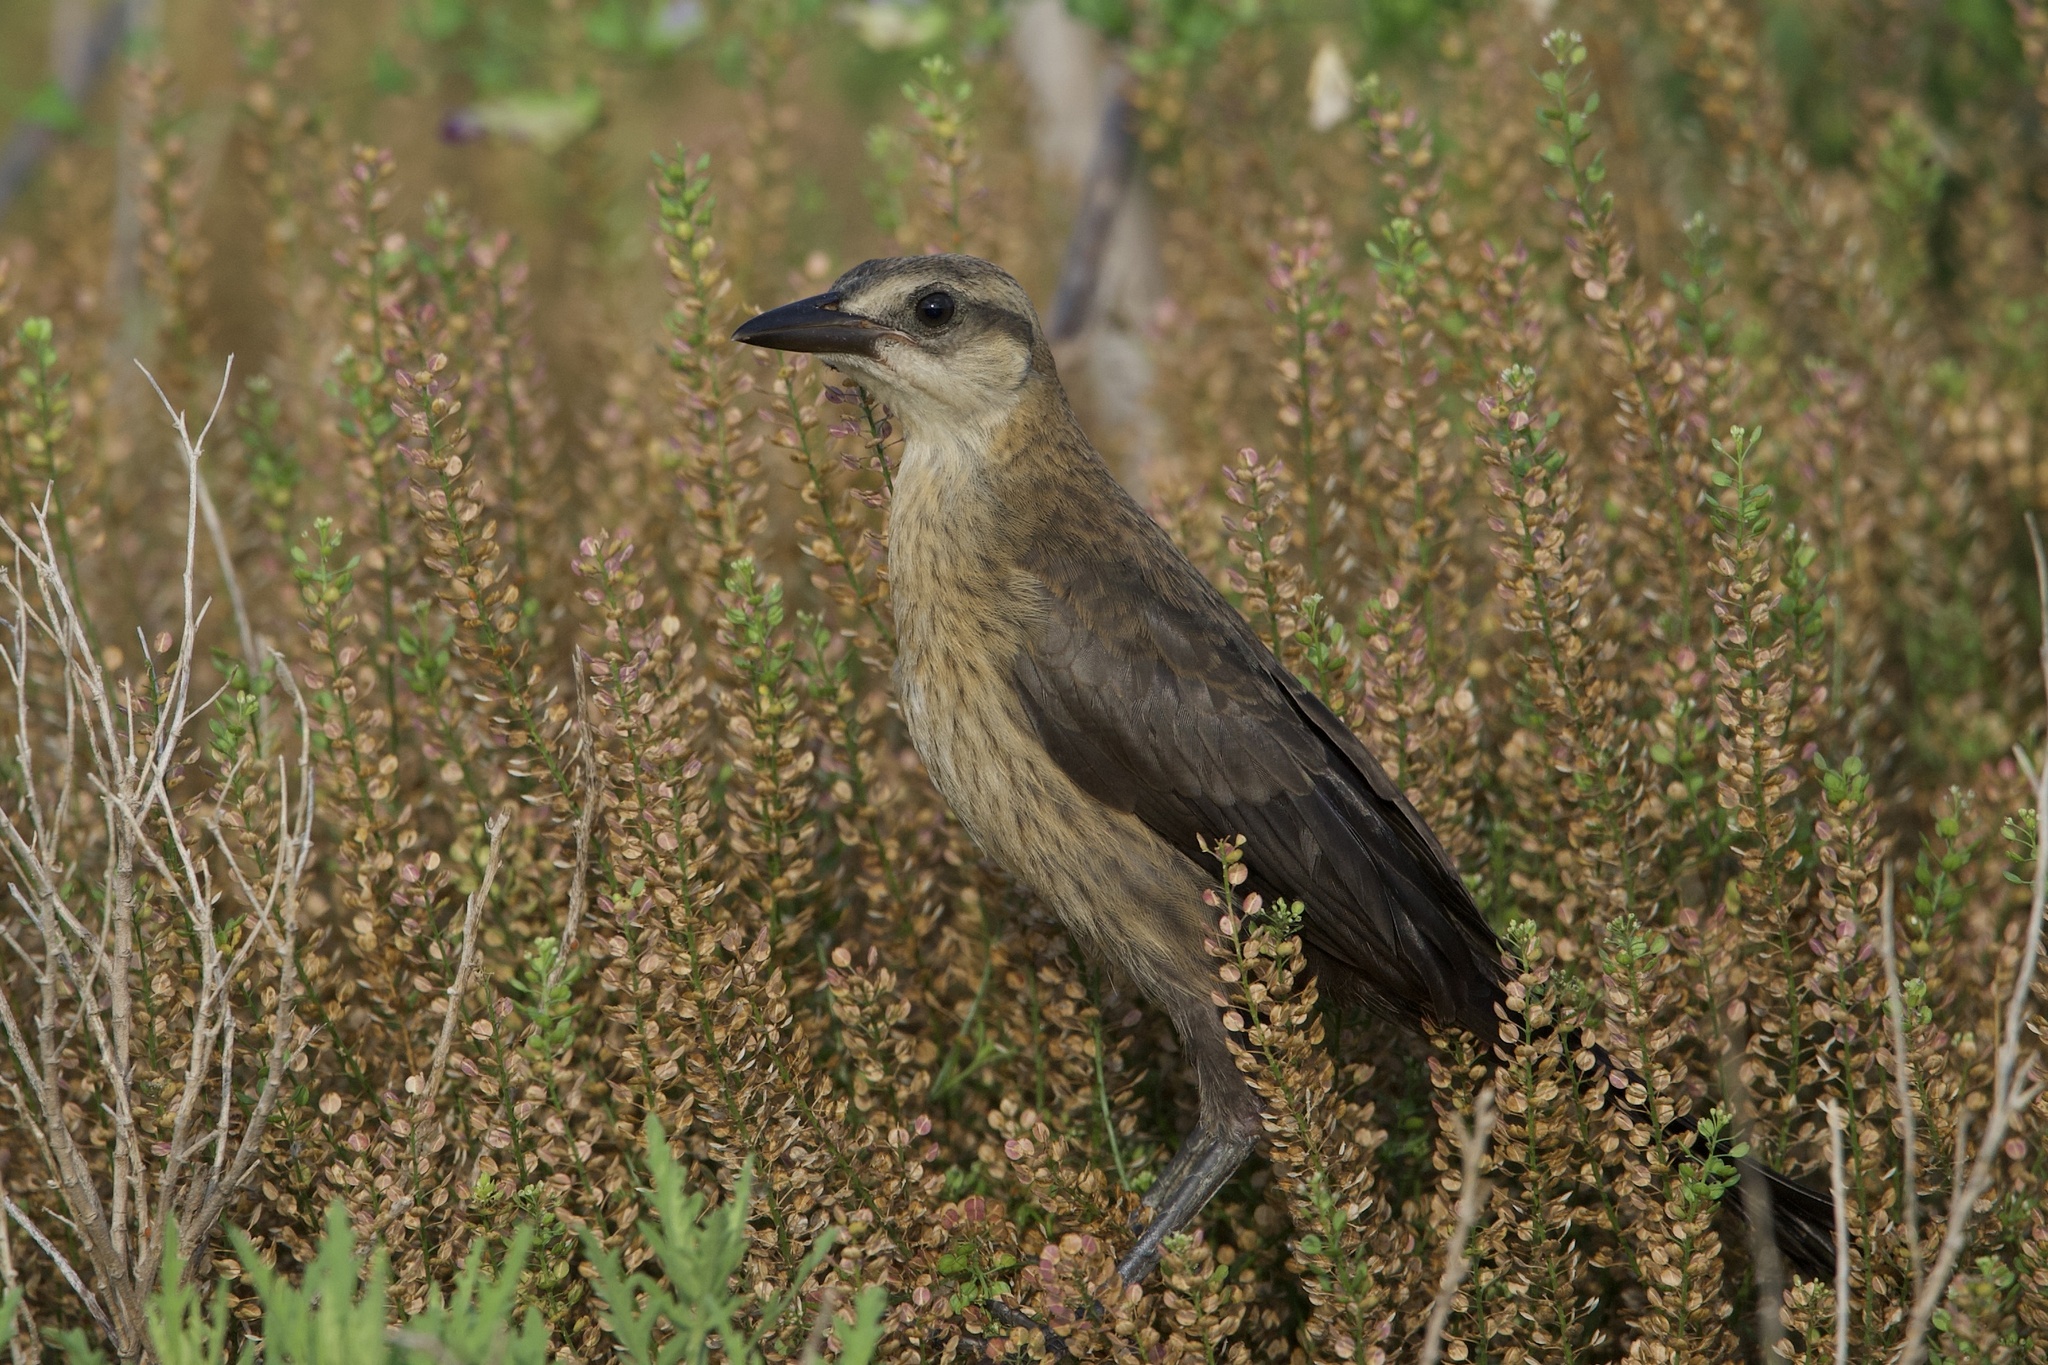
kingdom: Animalia
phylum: Chordata
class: Aves
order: Passeriformes
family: Icteridae
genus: Quiscalus
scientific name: Quiscalus mexicanus
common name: Great-tailed grackle
